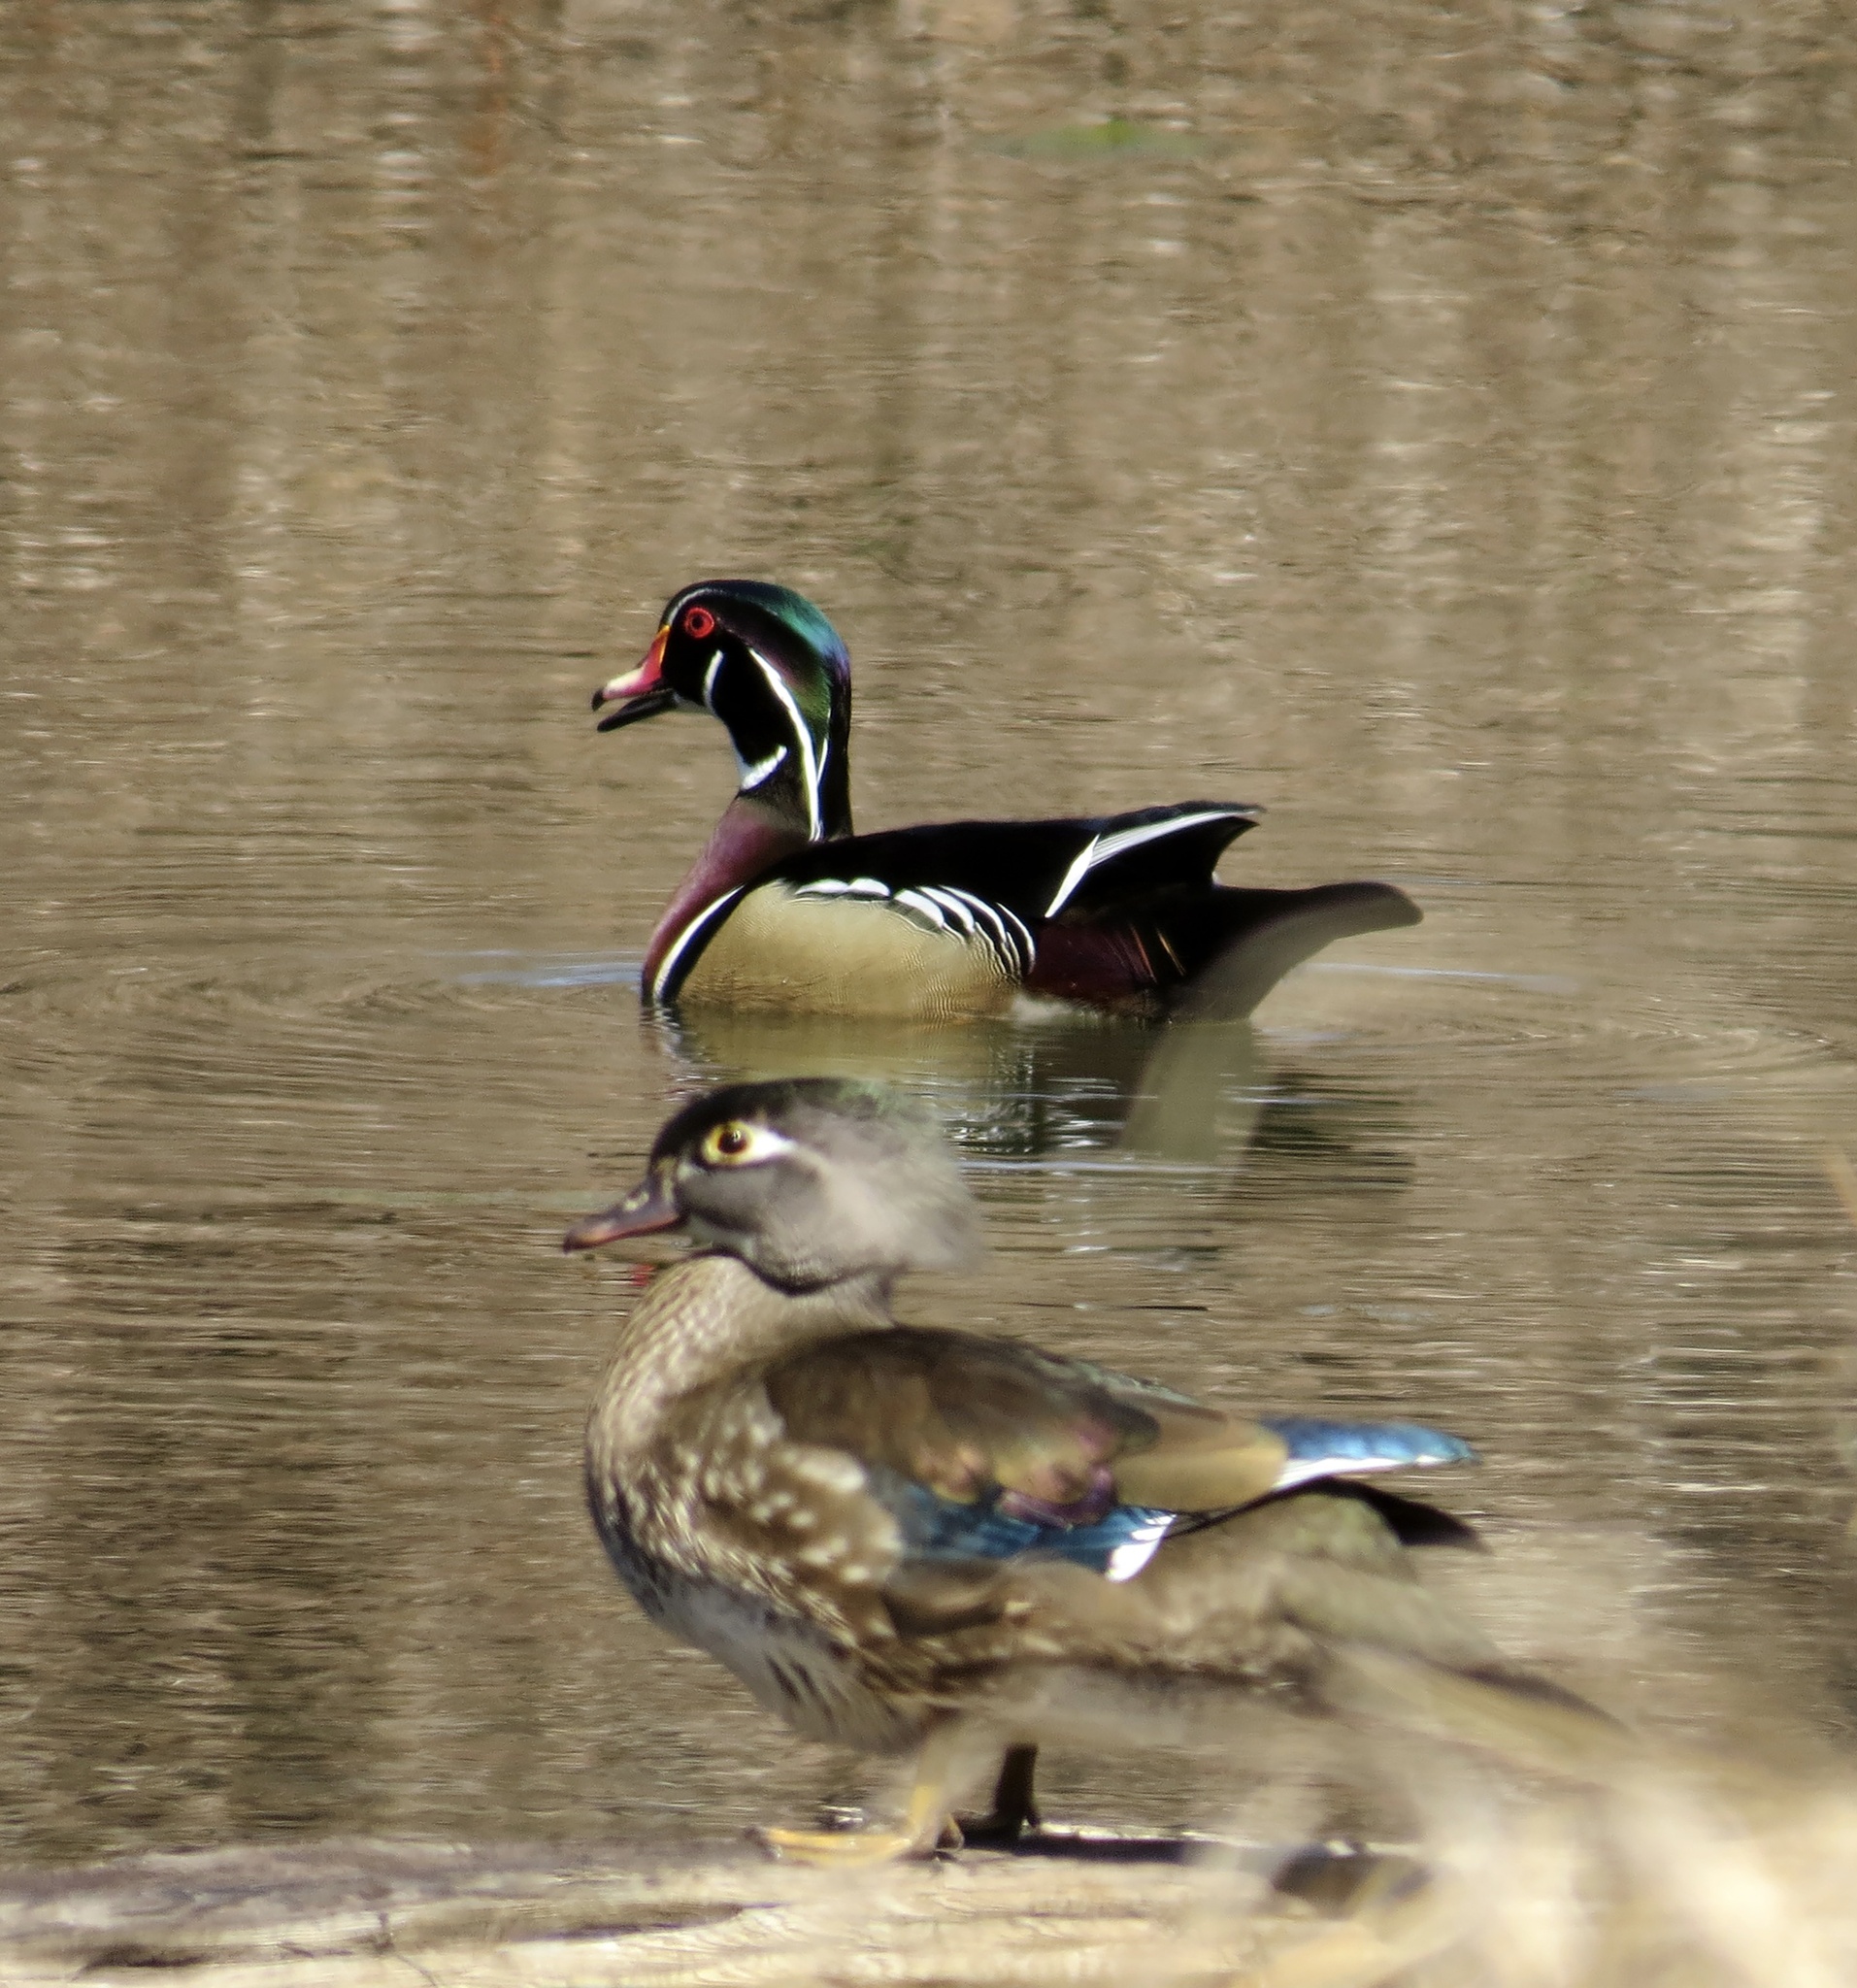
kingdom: Animalia
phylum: Chordata
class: Aves
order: Anseriformes
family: Anatidae
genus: Aix
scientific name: Aix sponsa
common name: Wood duck
